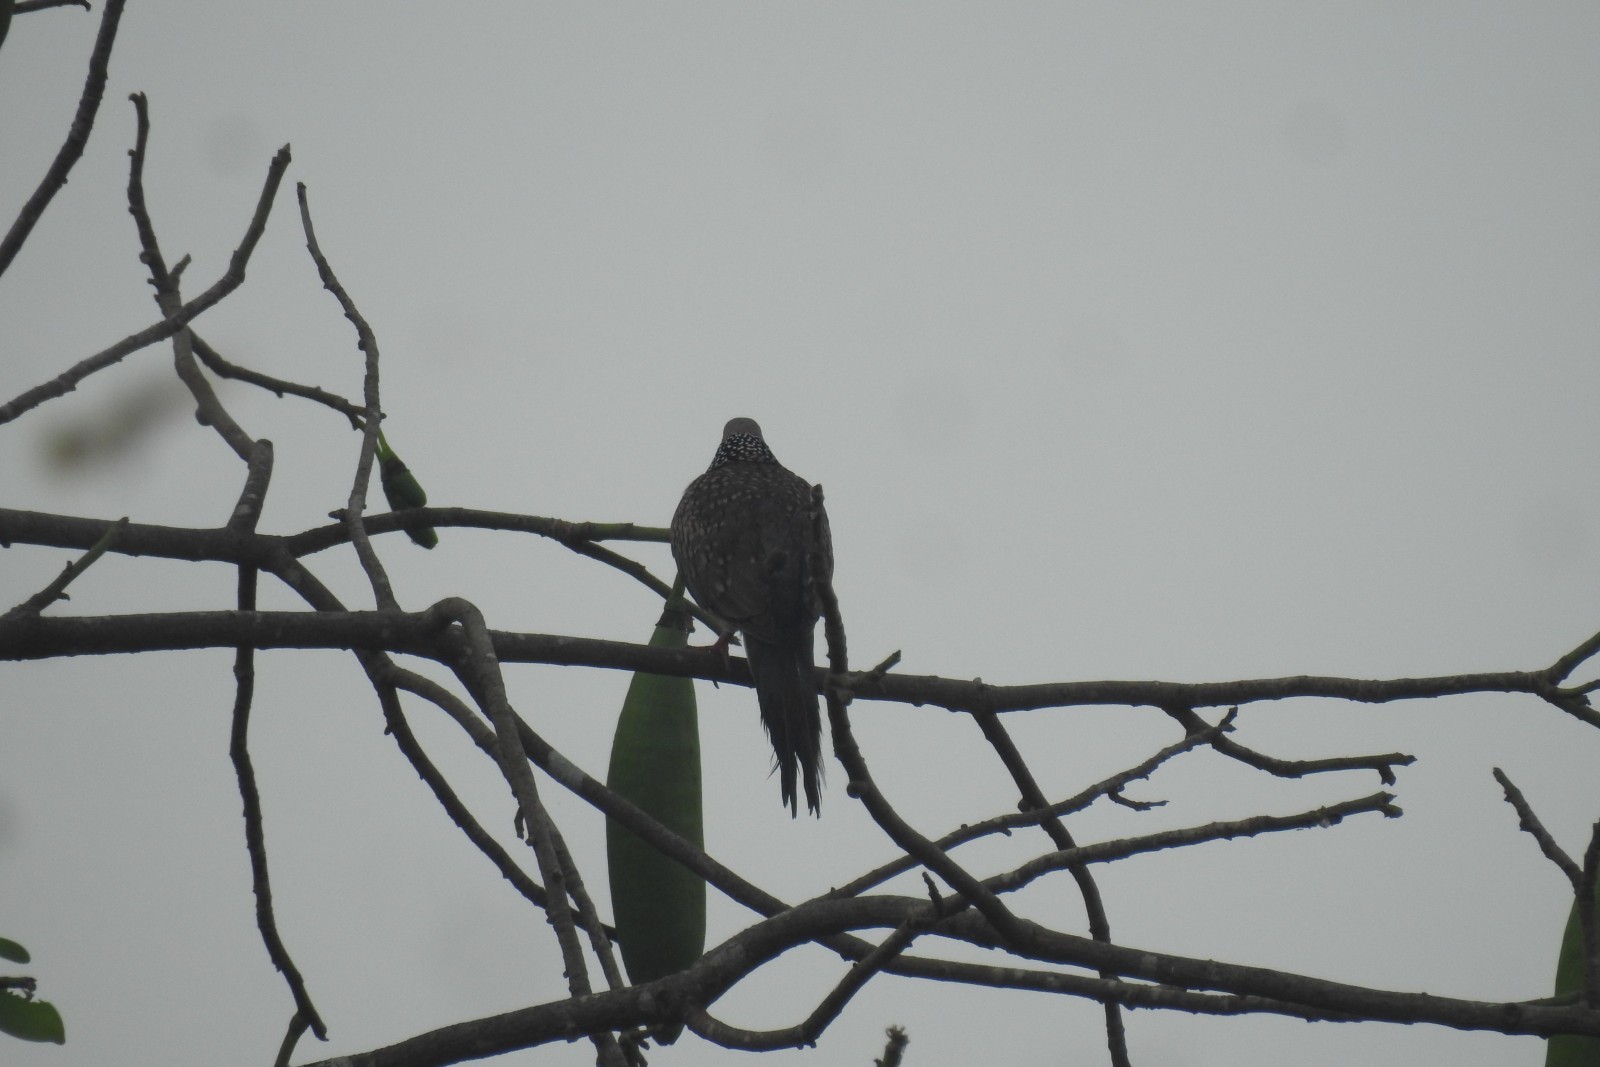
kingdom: Animalia
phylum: Chordata
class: Aves
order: Columbiformes
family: Columbidae
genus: Spilopelia
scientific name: Spilopelia chinensis
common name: Spotted dove
